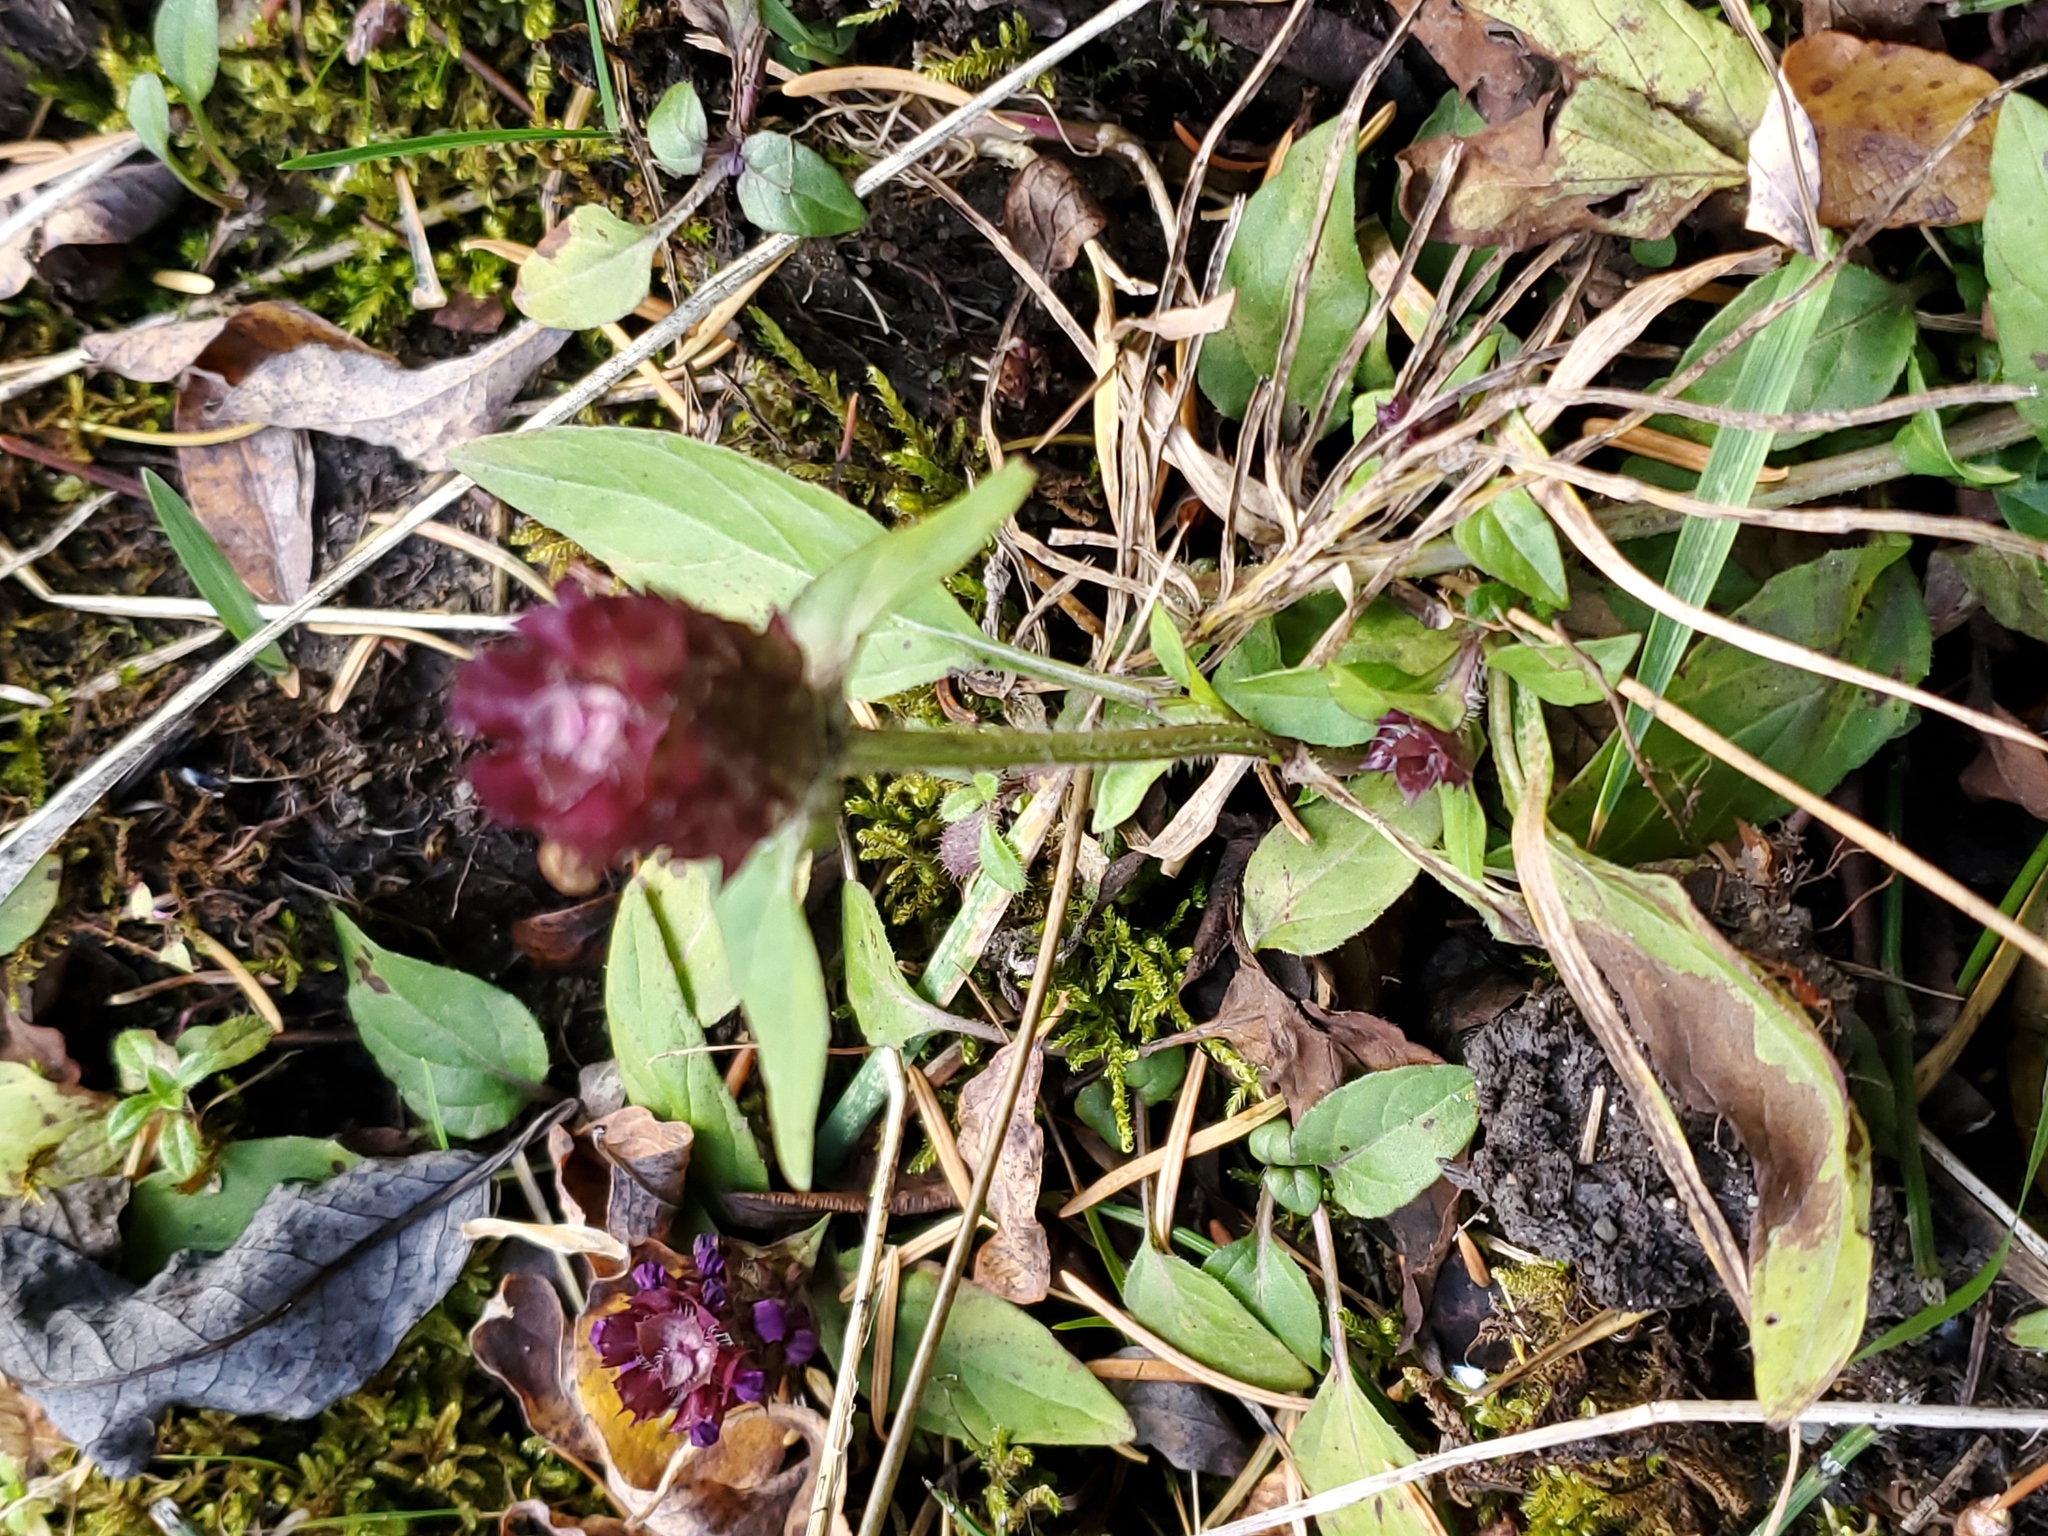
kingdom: Plantae
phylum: Tracheophyta
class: Magnoliopsida
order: Lamiales
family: Lamiaceae
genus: Prunella
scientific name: Prunella vulgaris
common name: Heal-all
